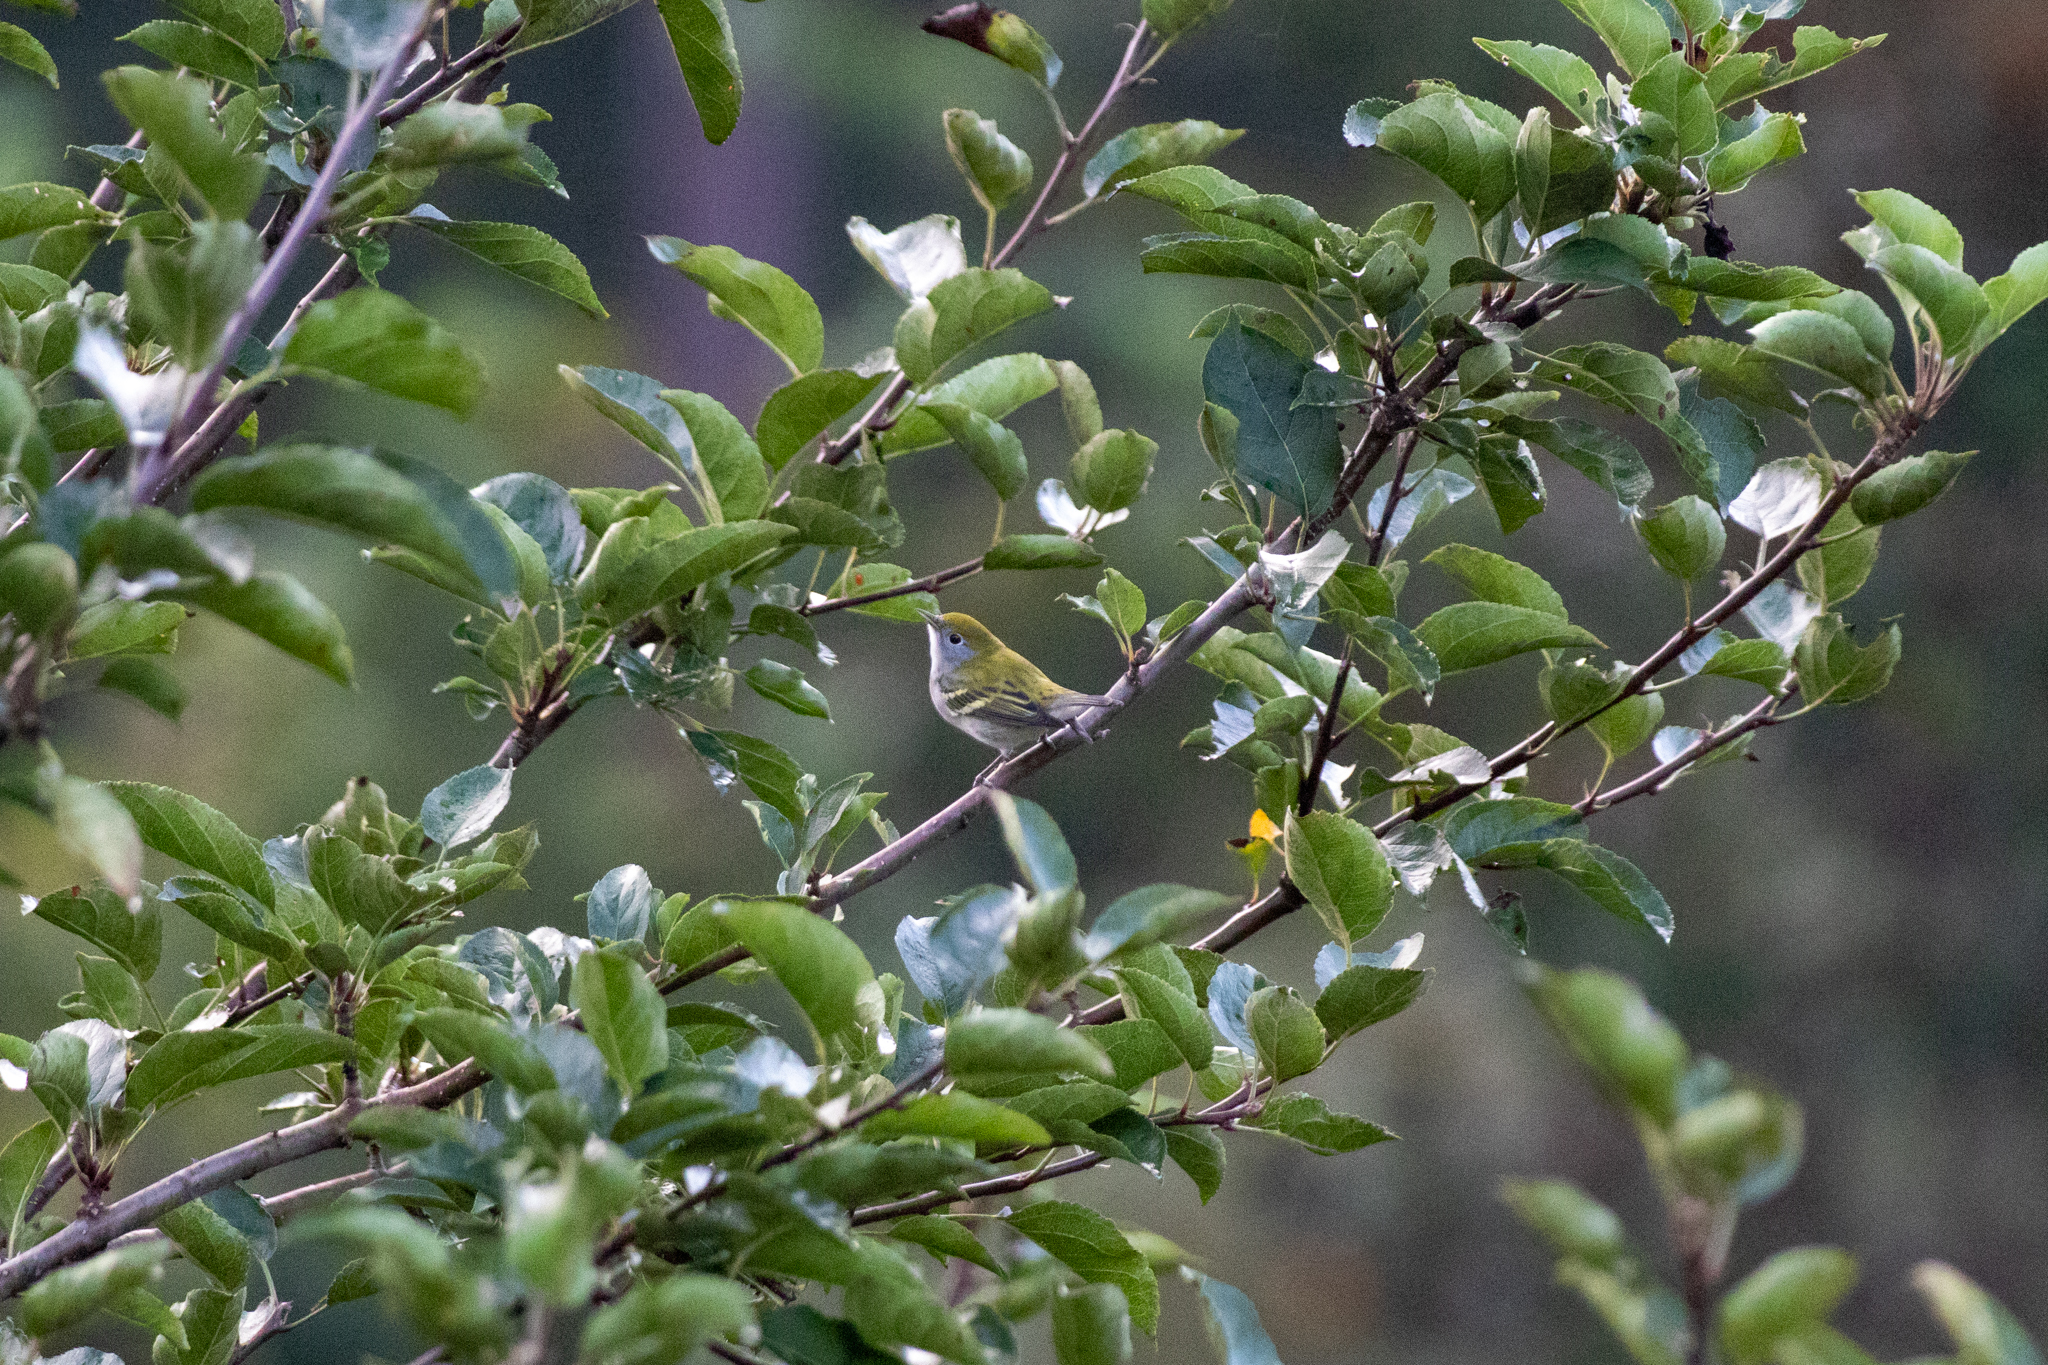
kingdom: Animalia
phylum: Chordata
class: Aves
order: Passeriformes
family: Parulidae
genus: Setophaga
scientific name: Setophaga pensylvanica
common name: Chestnut-sided warbler
